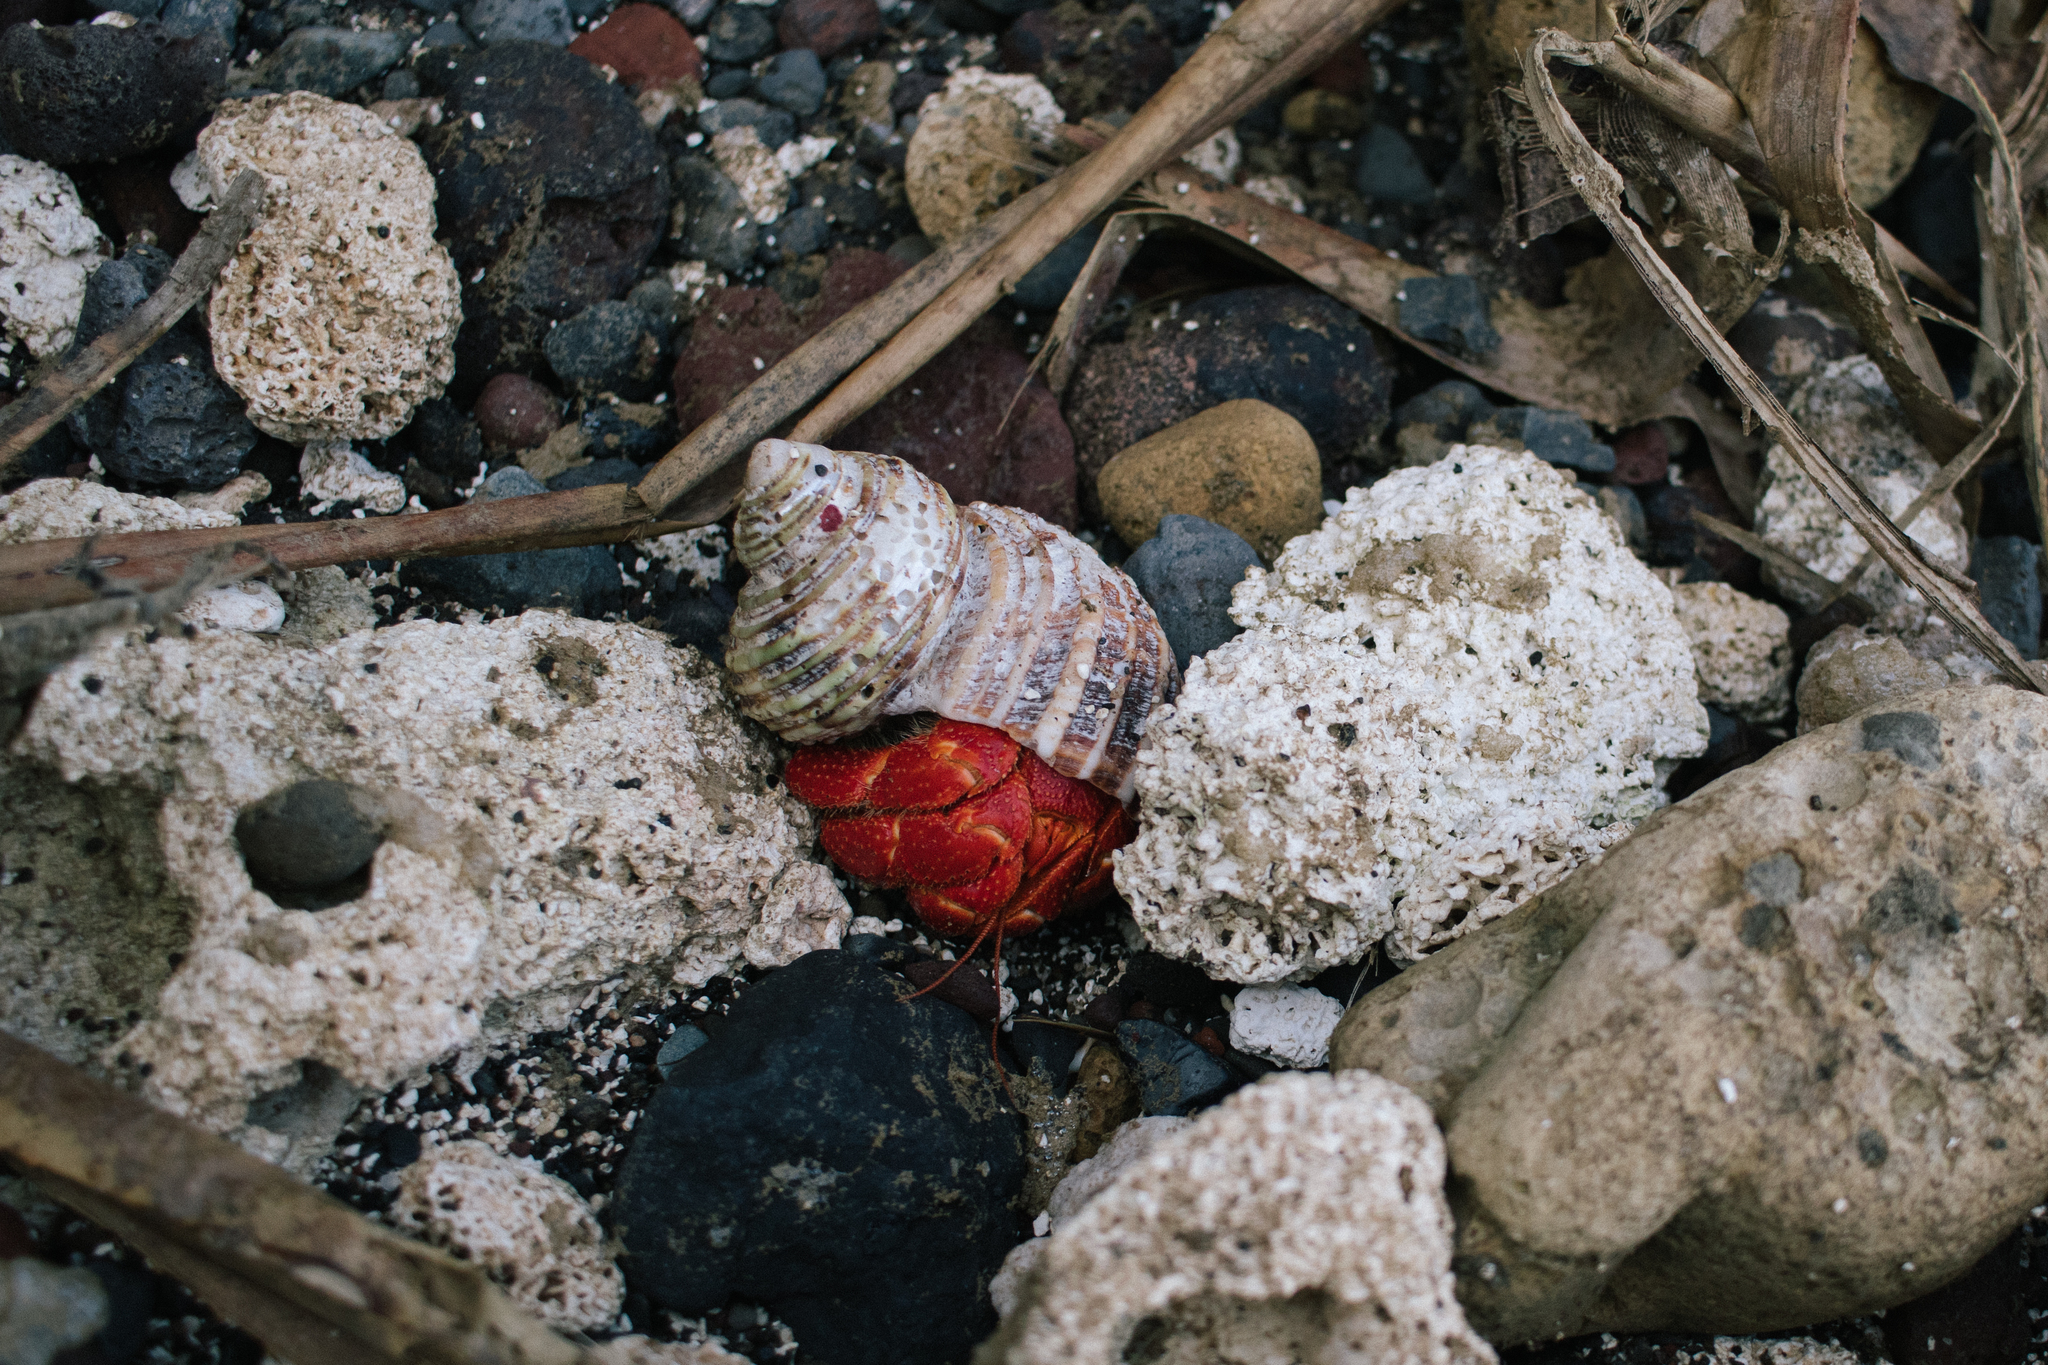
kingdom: Animalia
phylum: Arthropoda
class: Malacostraca
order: Decapoda
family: Coenobitidae
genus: Coenobita
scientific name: Coenobita perlatus
